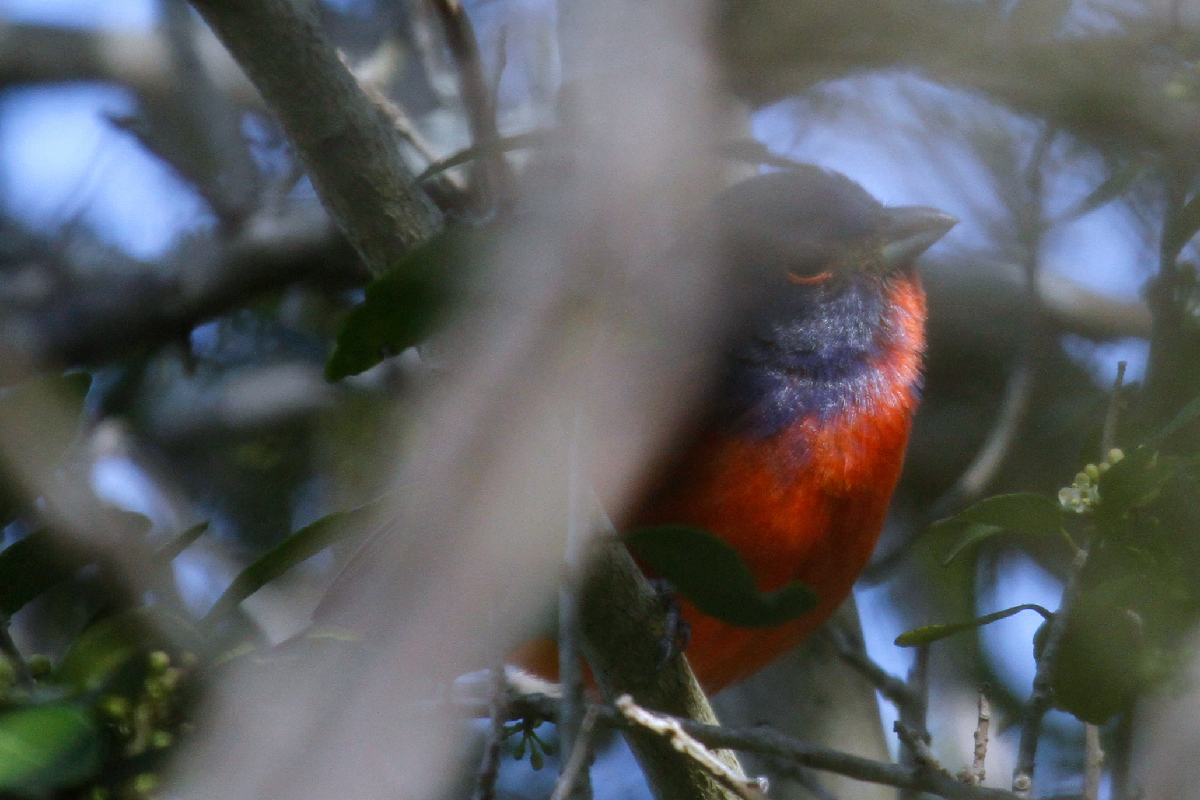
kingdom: Animalia
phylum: Chordata
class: Aves
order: Passeriformes
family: Cardinalidae
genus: Passerina
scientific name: Passerina ciris
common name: Painted bunting
